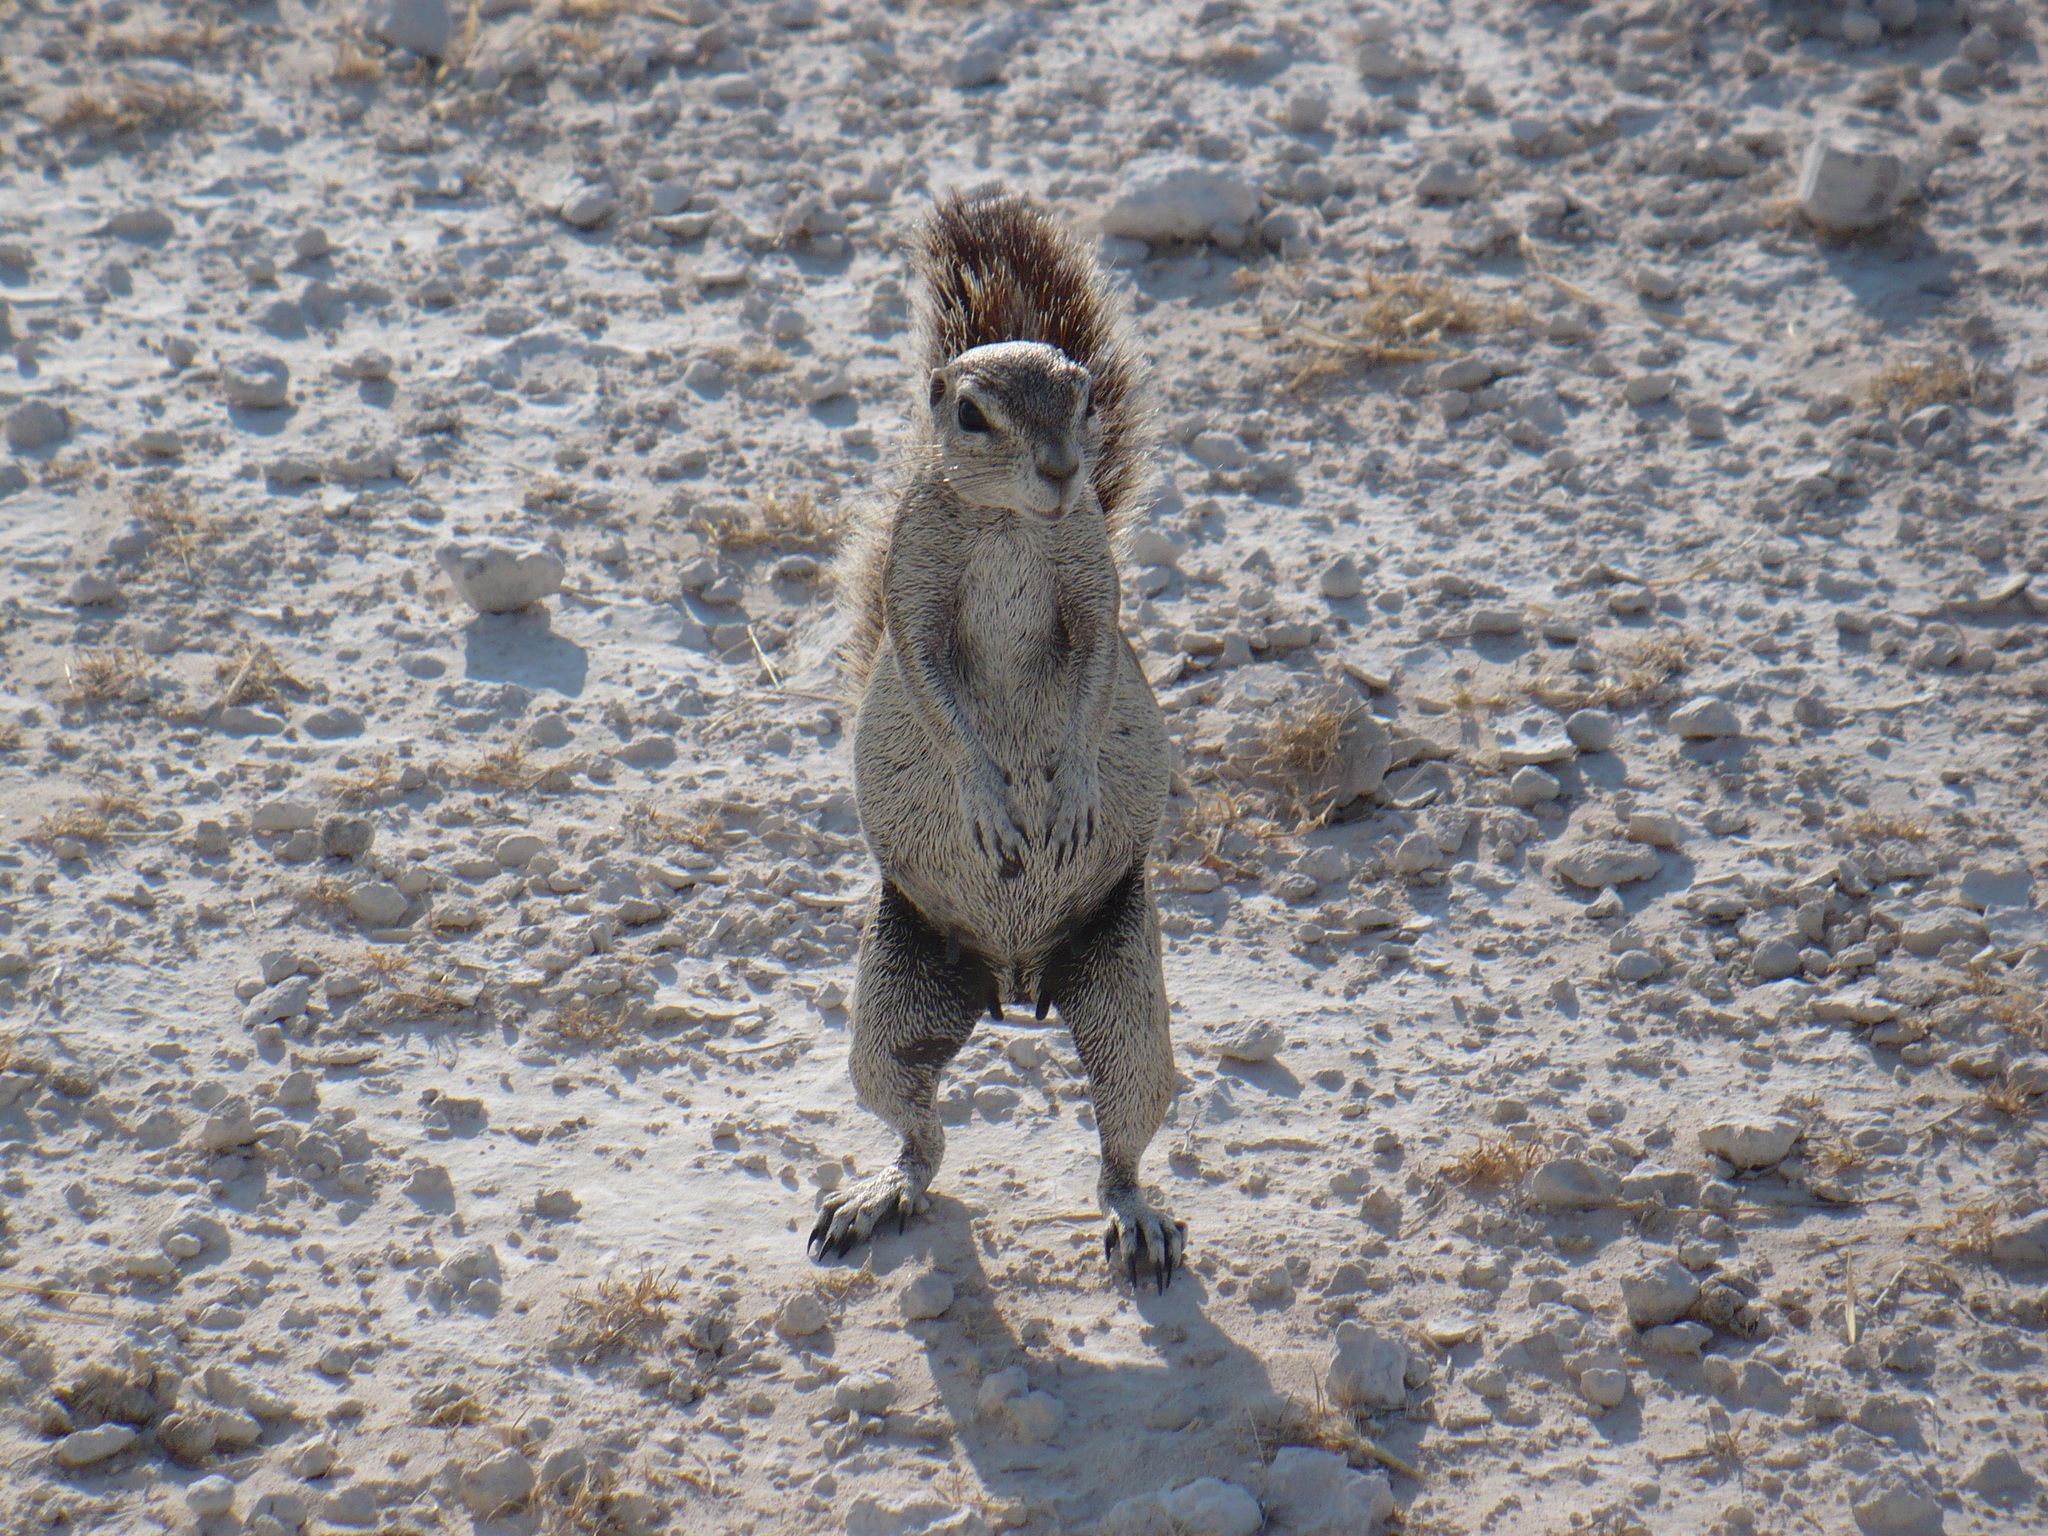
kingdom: Animalia
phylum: Chordata
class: Mammalia
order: Rodentia
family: Sciuridae
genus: Xerus
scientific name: Xerus inauris
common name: South african ground squirrel
